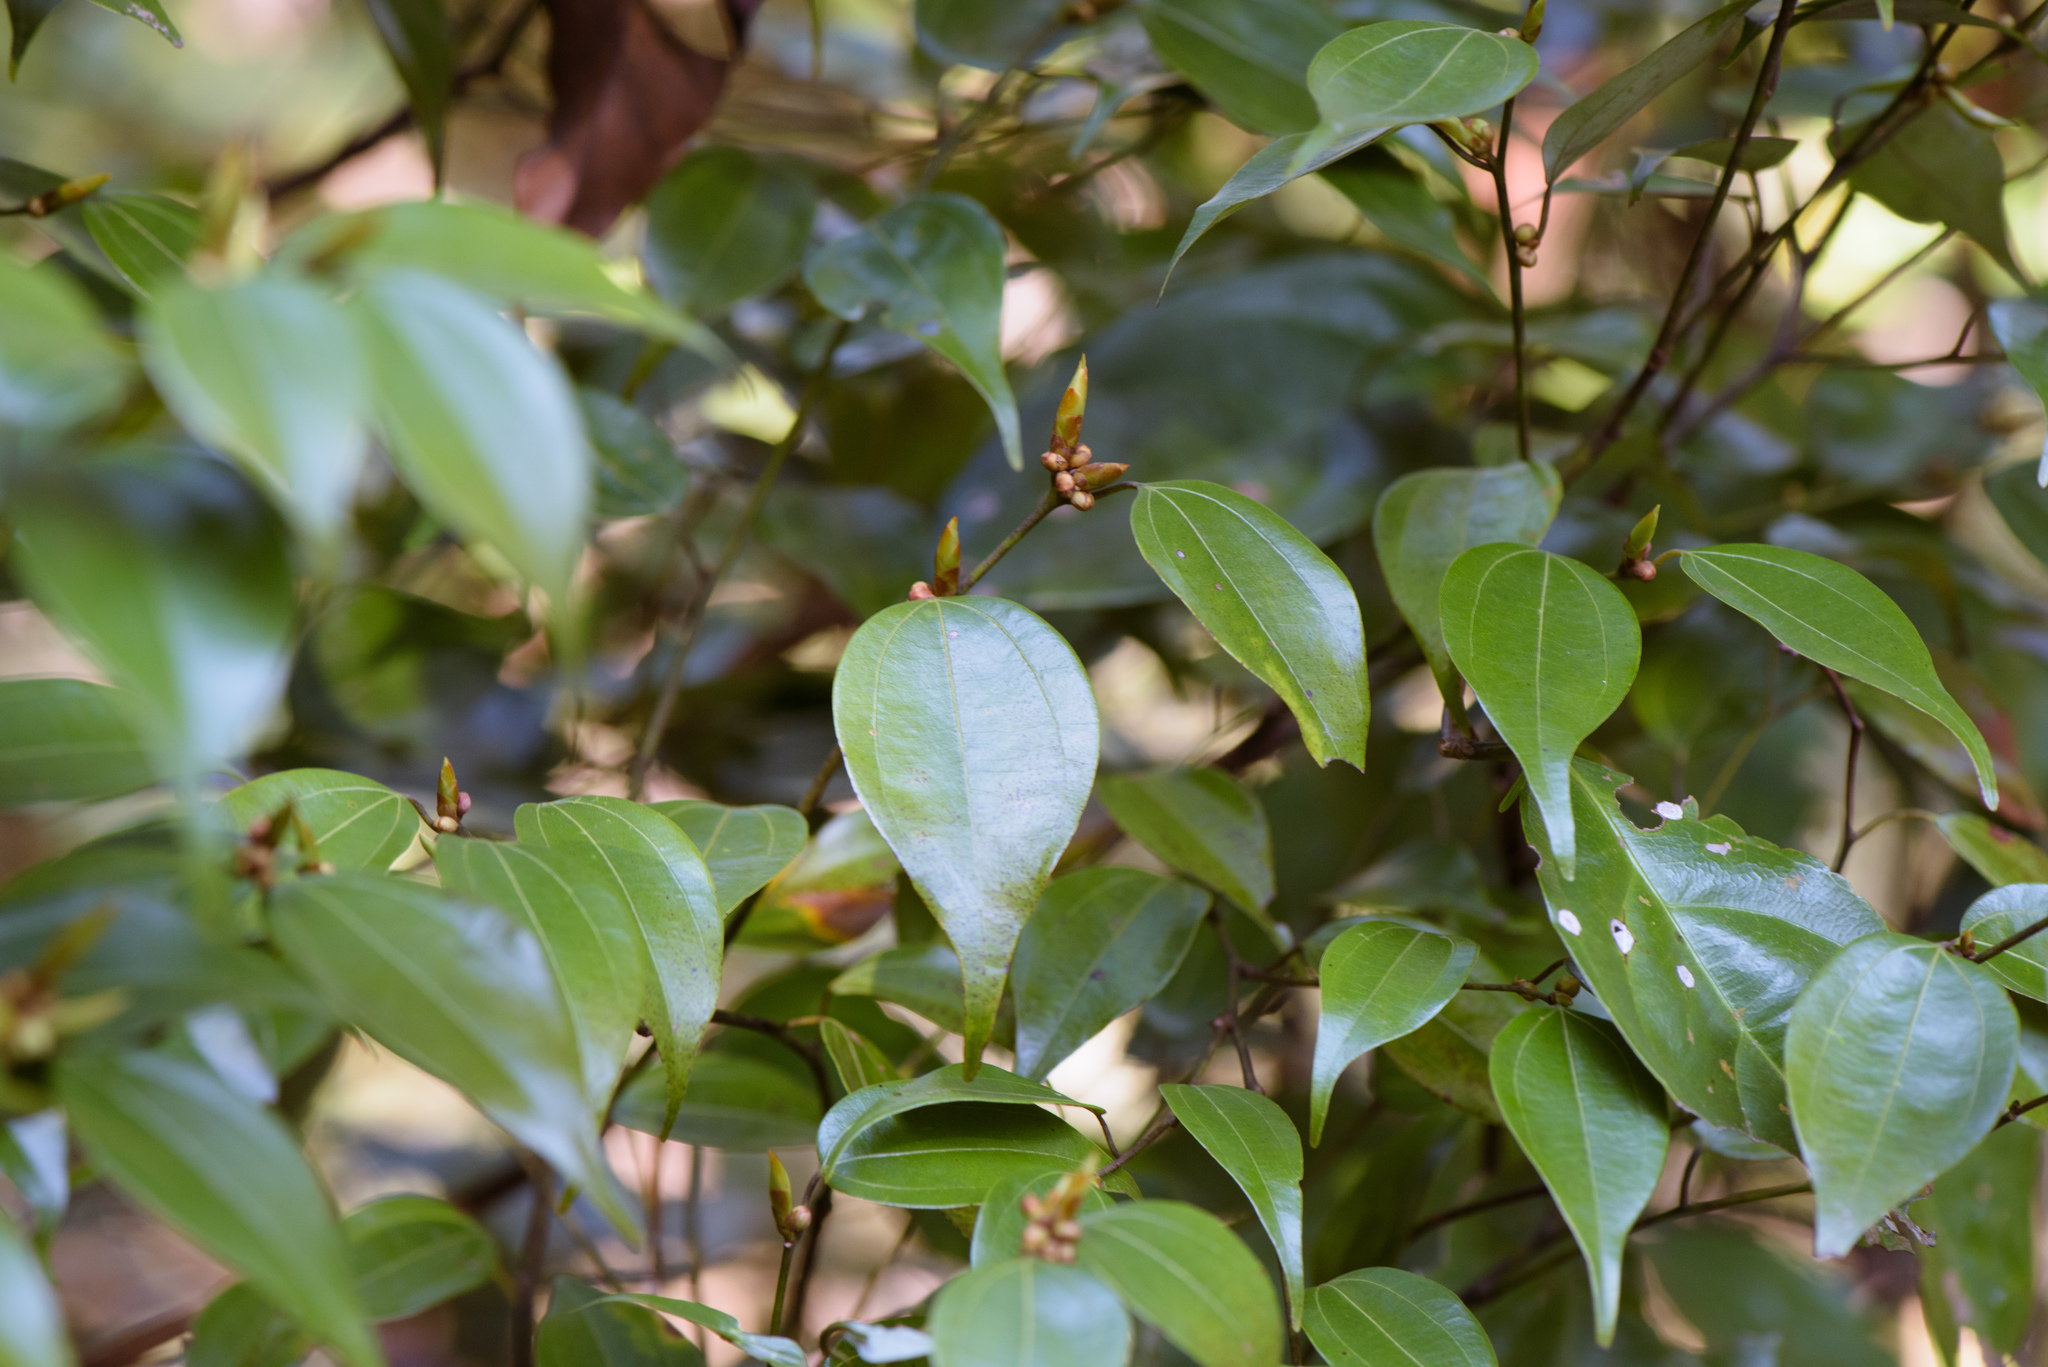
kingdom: Plantae
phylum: Tracheophyta
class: Magnoliopsida
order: Laurales
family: Lauraceae
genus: Lindera
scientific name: Lindera aggregata
